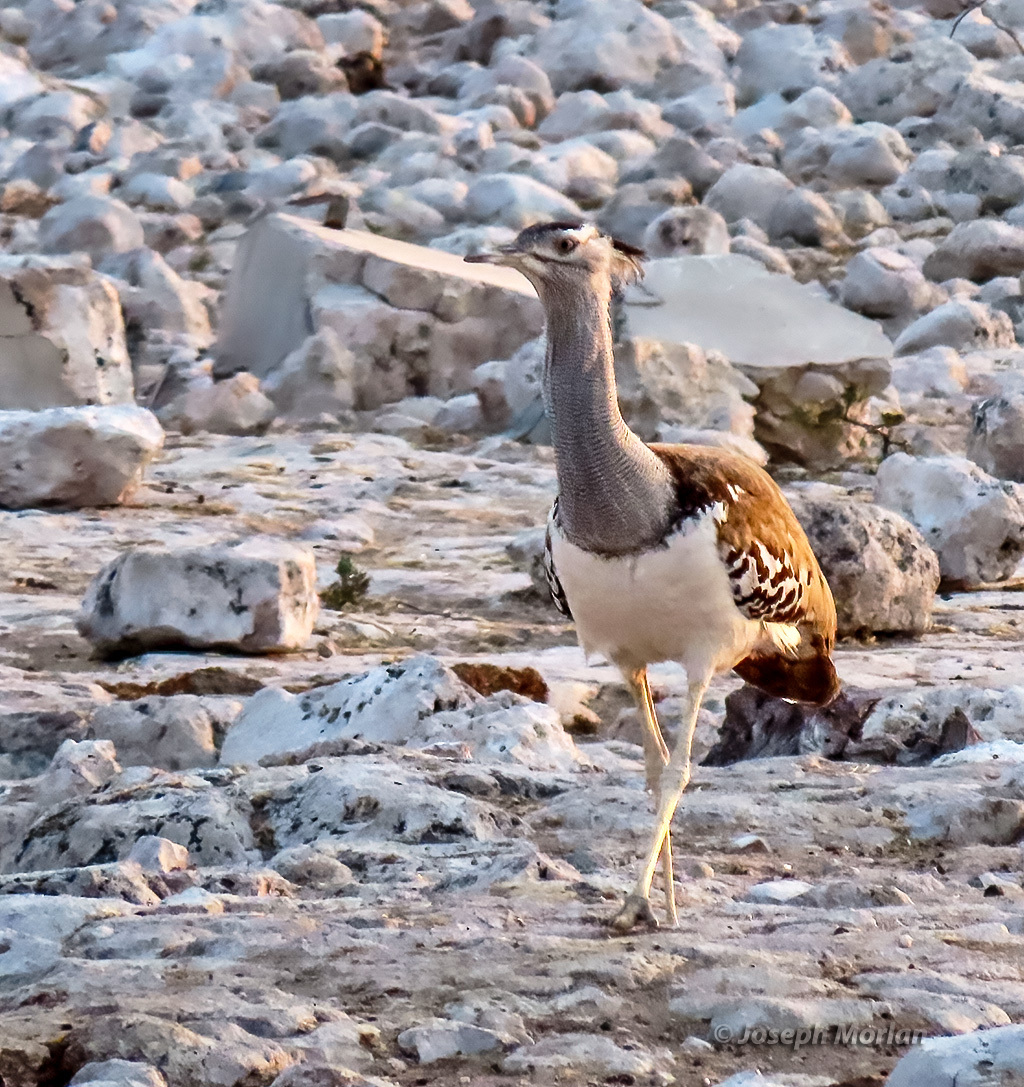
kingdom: Animalia
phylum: Chordata
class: Aves
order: Otidiformes
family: Otididae
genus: Ardeotis
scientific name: Ardeotis kori
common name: Kori bustard
